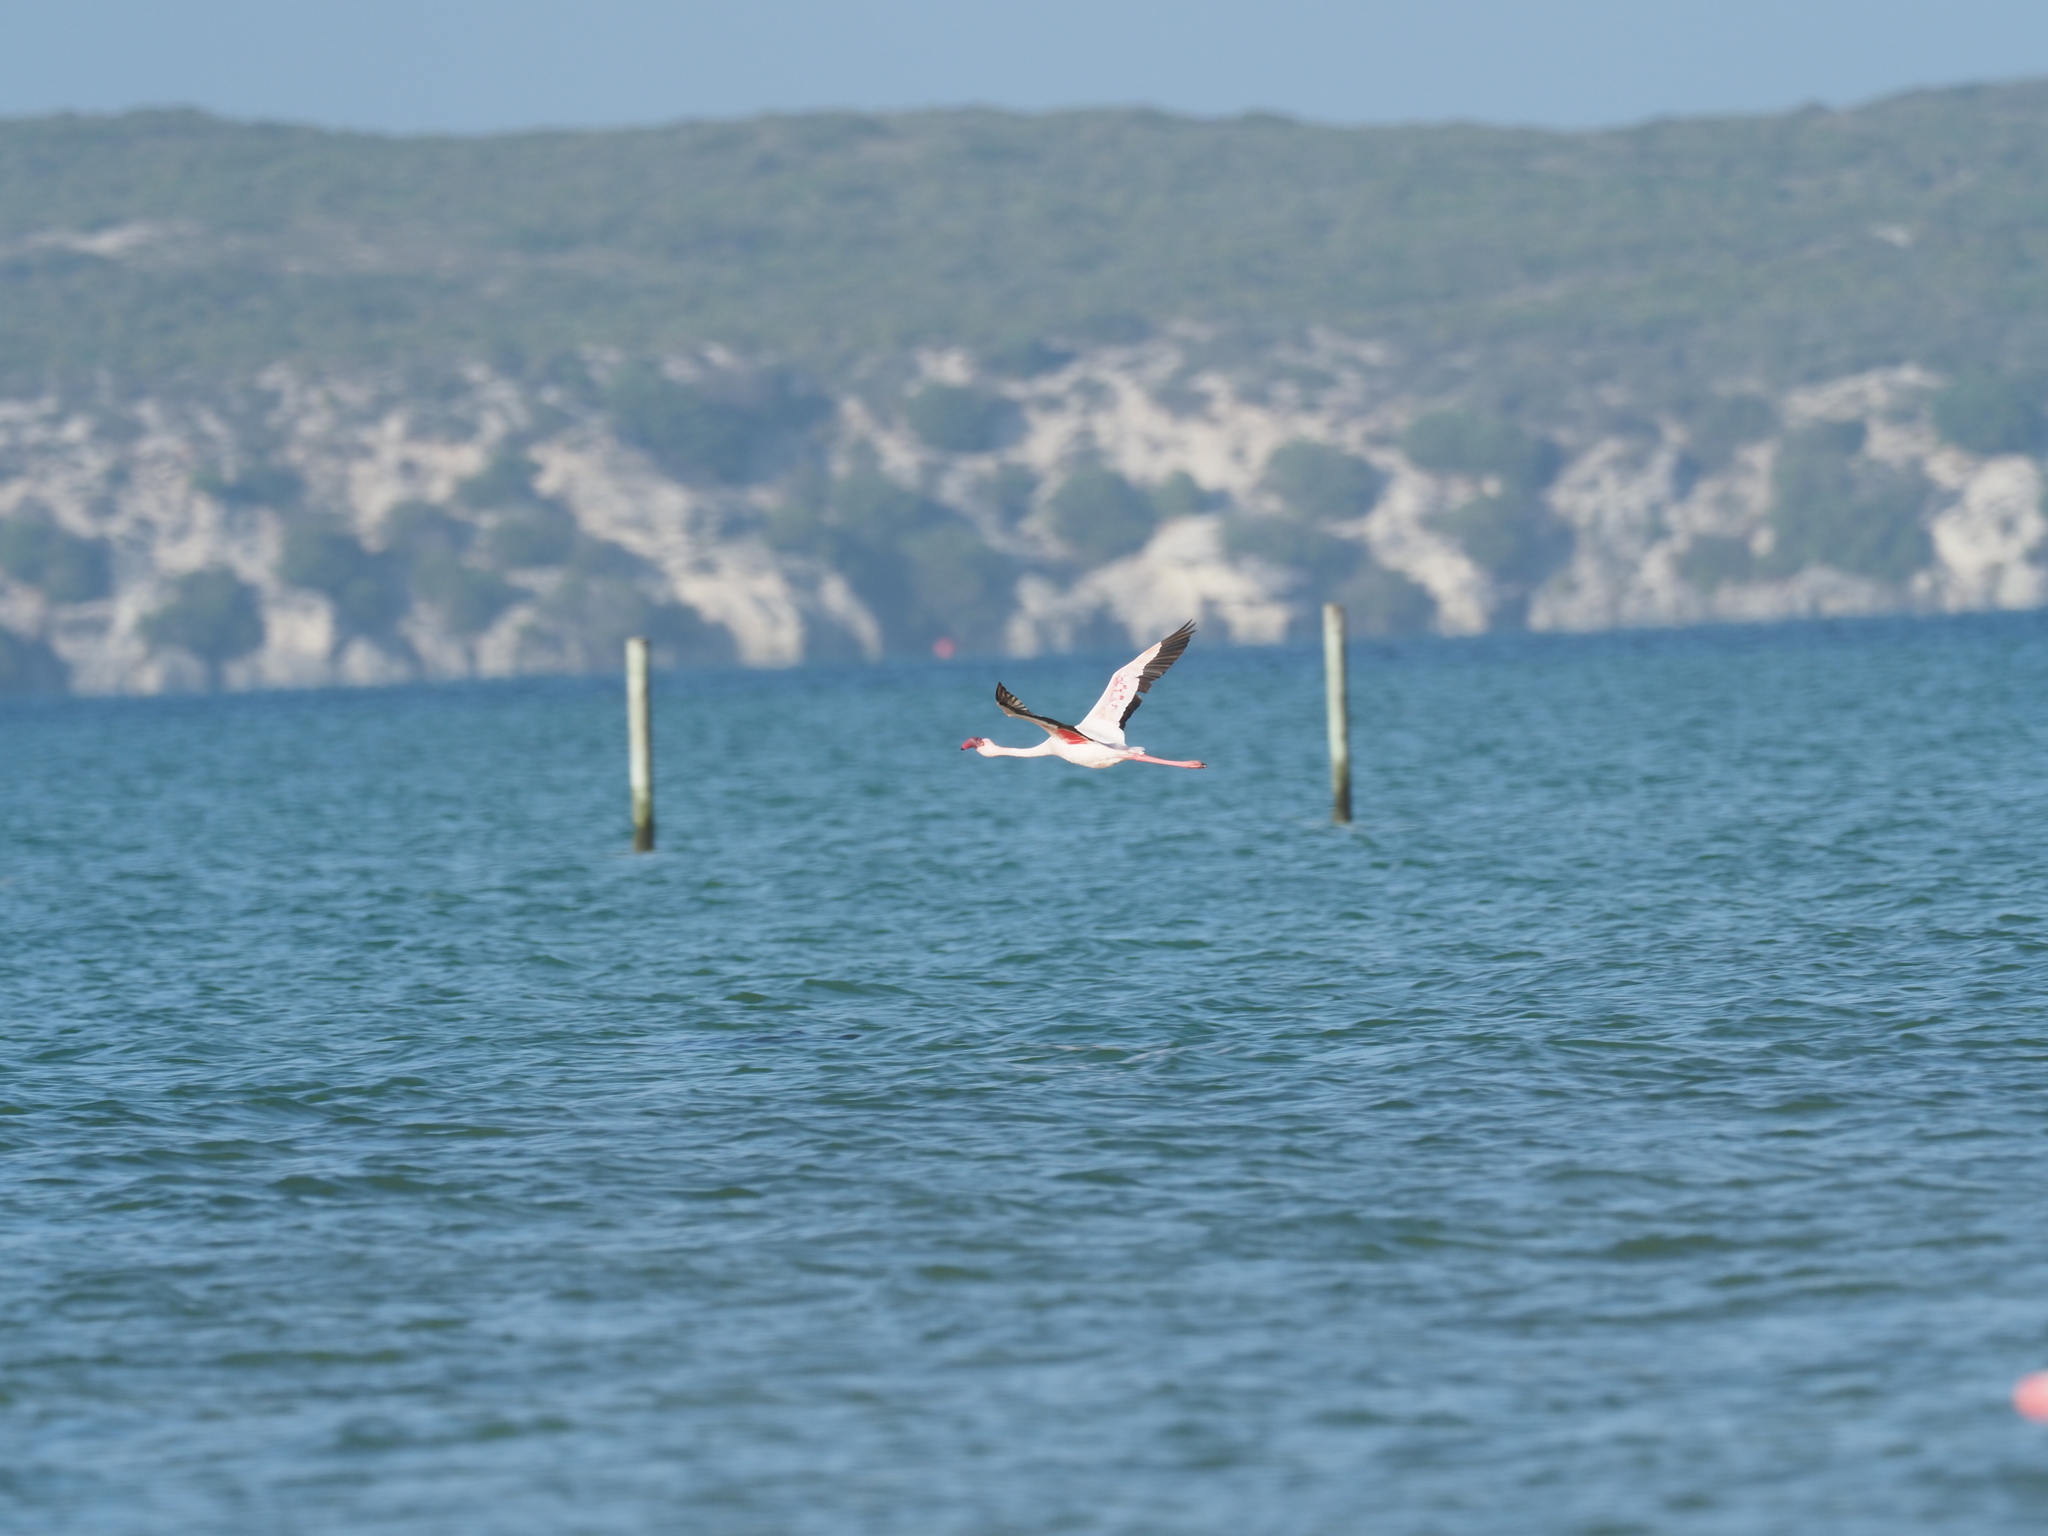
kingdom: Animalia
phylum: Chordata
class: Aves
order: Phoenicopteriformes
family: Phoenicopteridae
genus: Phoeniconaias
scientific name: Phoeniconaias minor
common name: Lesser flamingo
